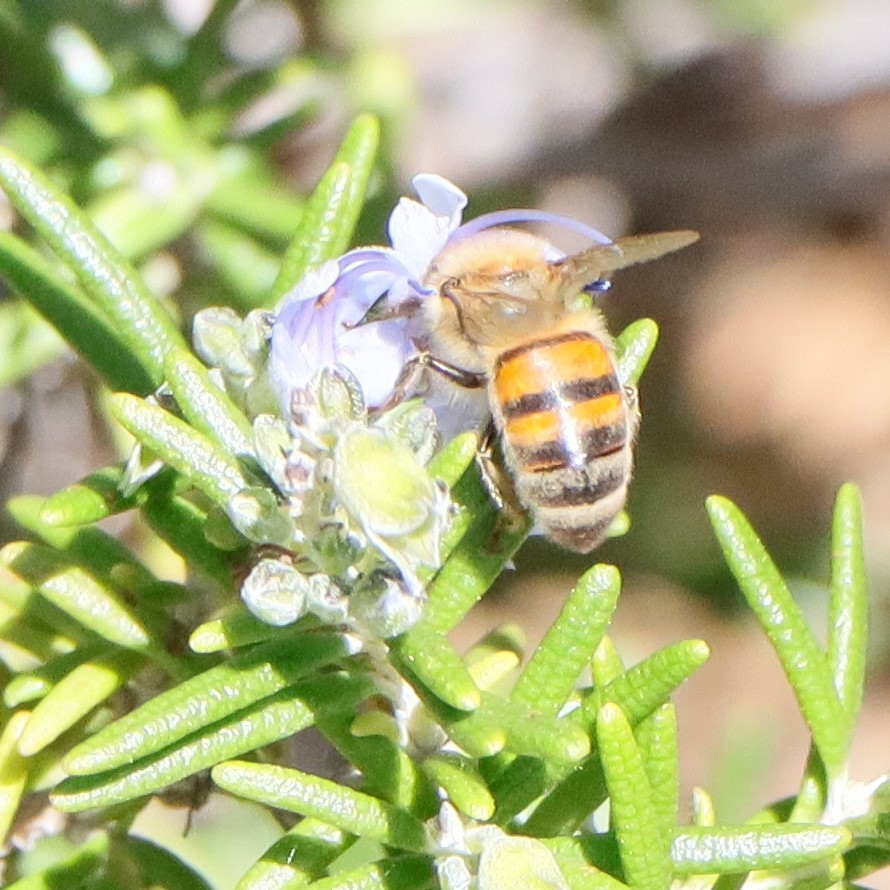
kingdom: Animalia
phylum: Arthropoda
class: Insecta
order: Hymenoptera
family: Apidae
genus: Apis
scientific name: Apis mellifera
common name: Honey bee
